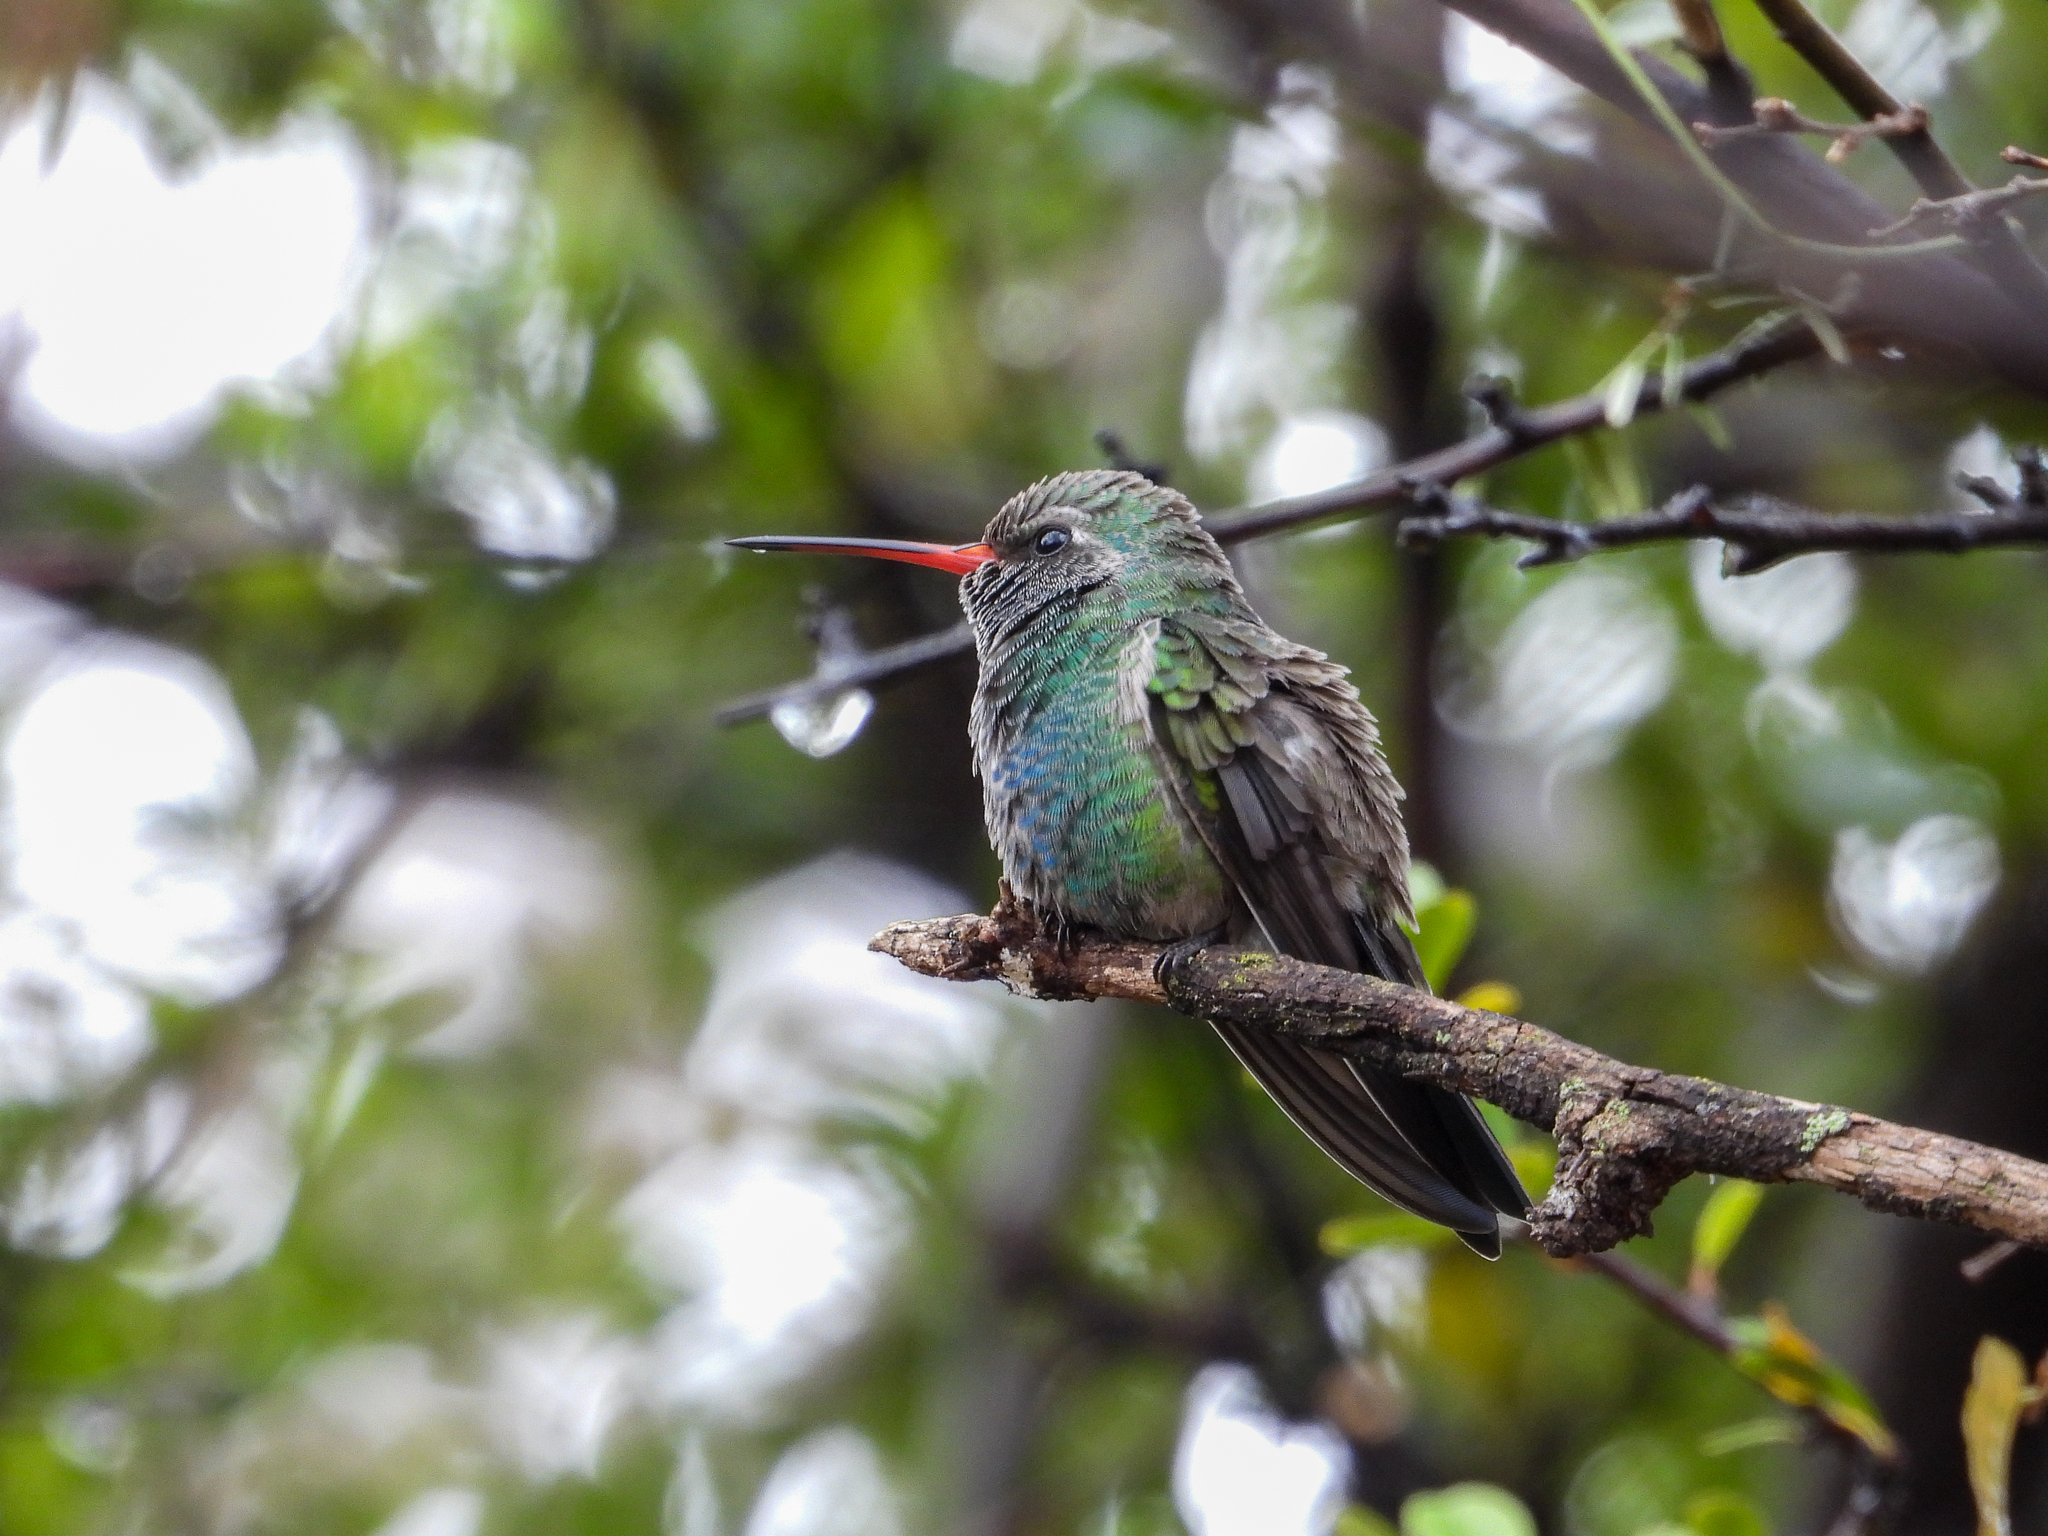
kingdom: Animalia
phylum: Chordata
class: Aves
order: Apodiformes
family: Trochilidae
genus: Cynanthus
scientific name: Cynanthus latirostris
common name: Broad-billed hummingbird
